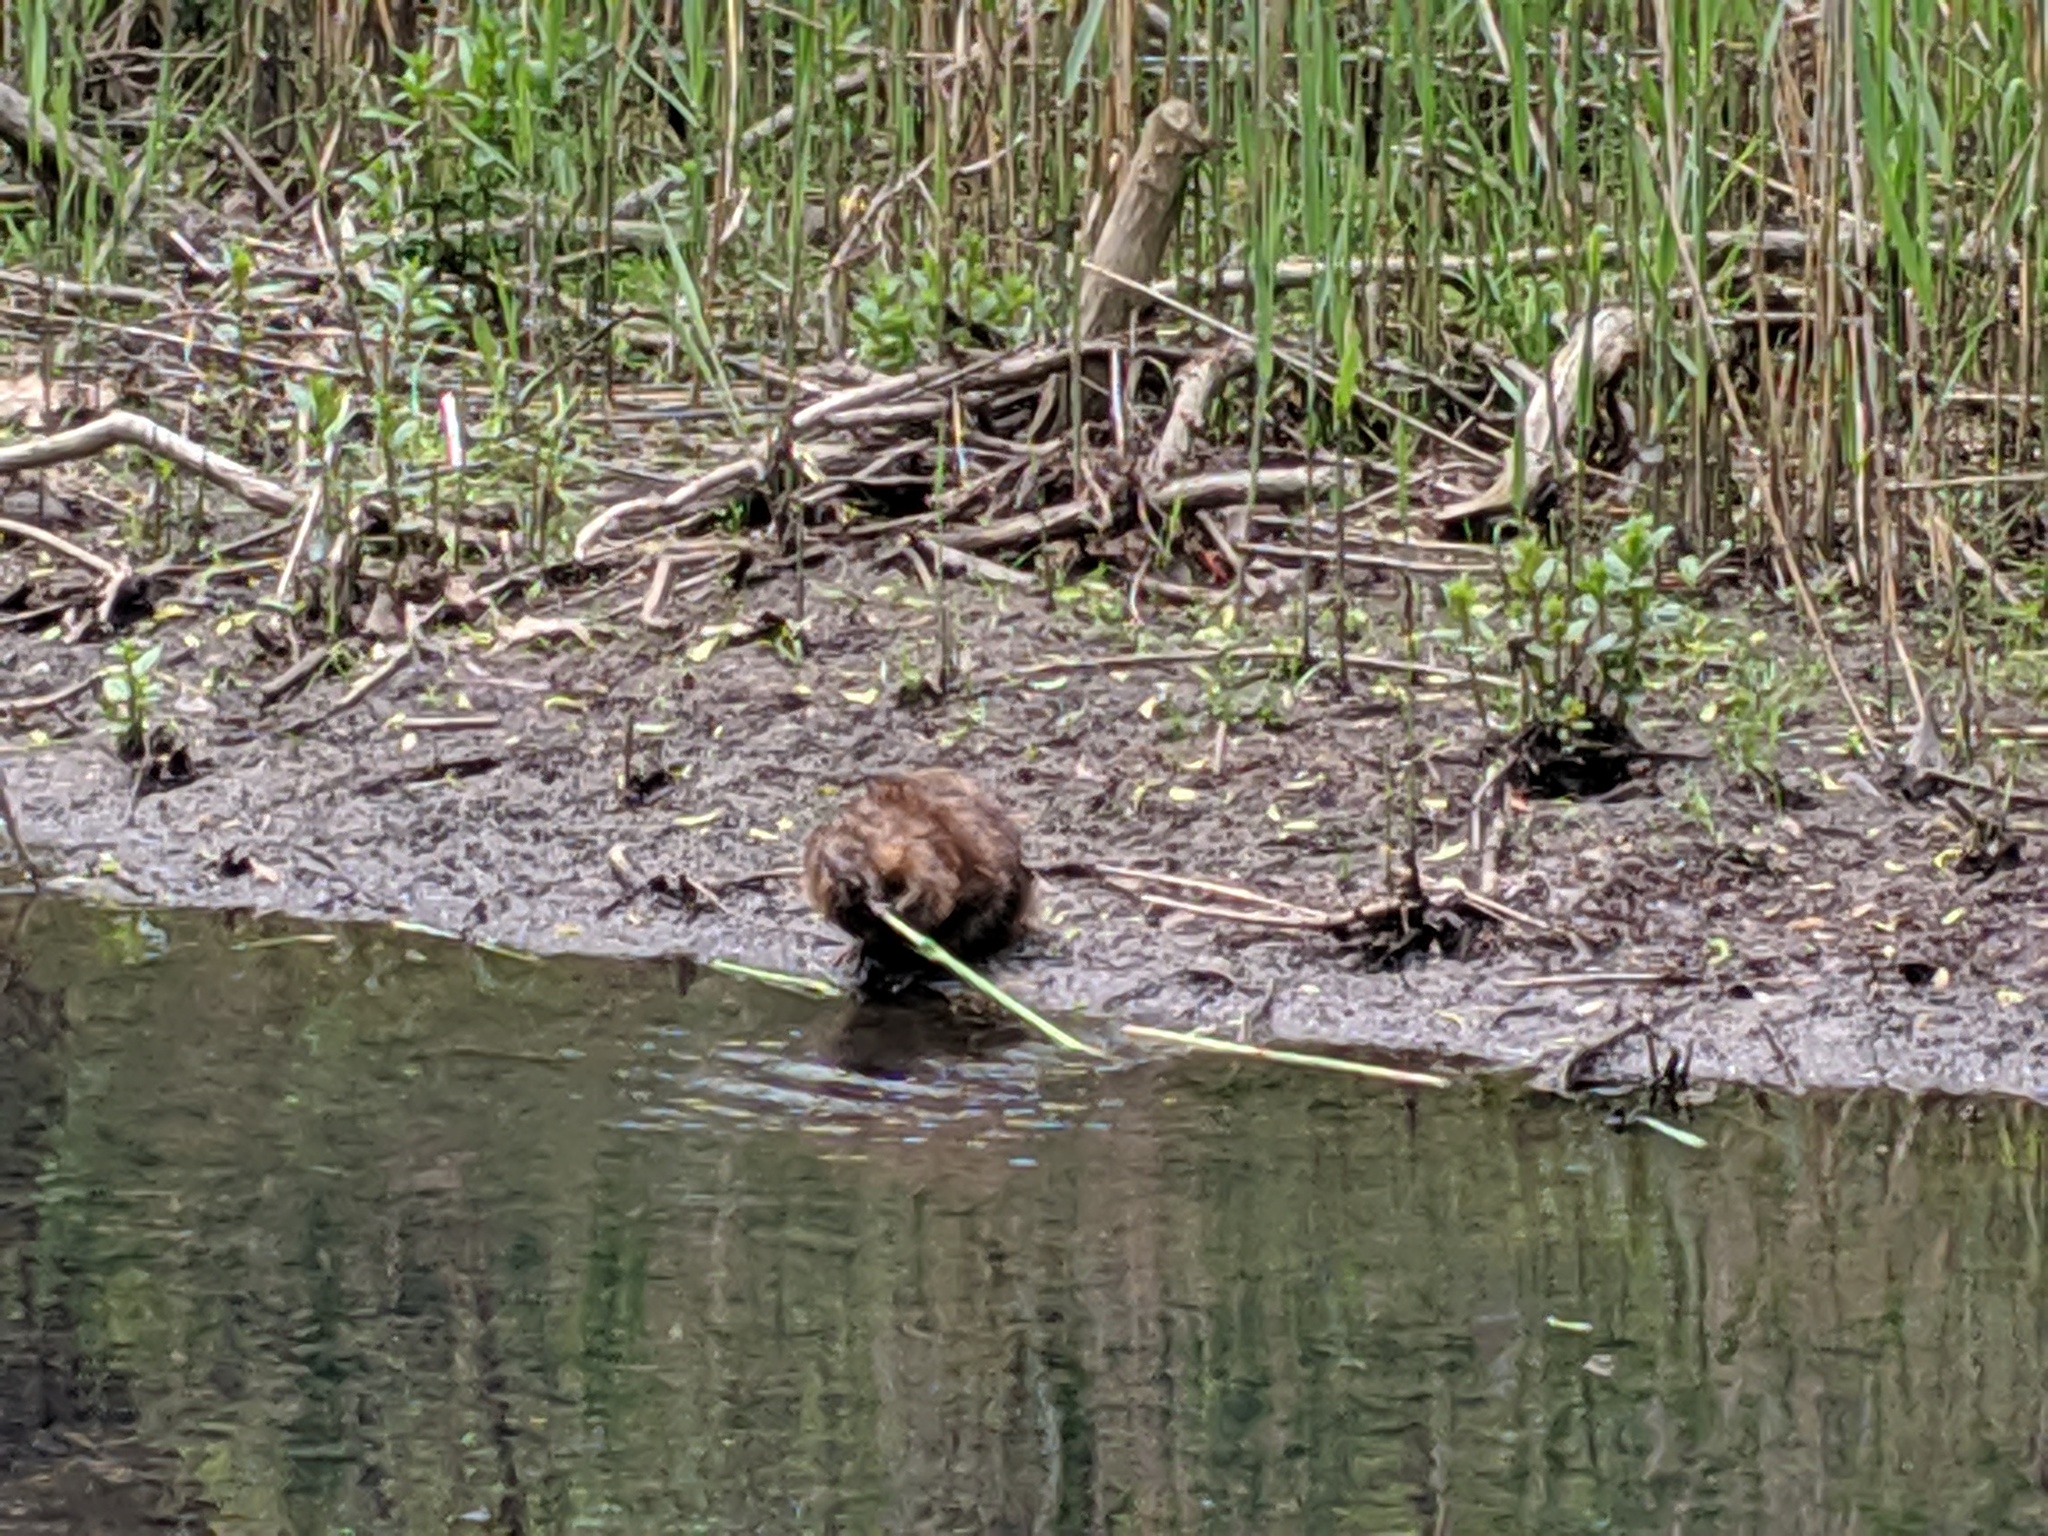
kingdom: Animalia
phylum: Chordata
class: Mammalia
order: Rodentia
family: Cricetidae
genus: Ondatra
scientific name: Ondatra zibethicus
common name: Muskrat
